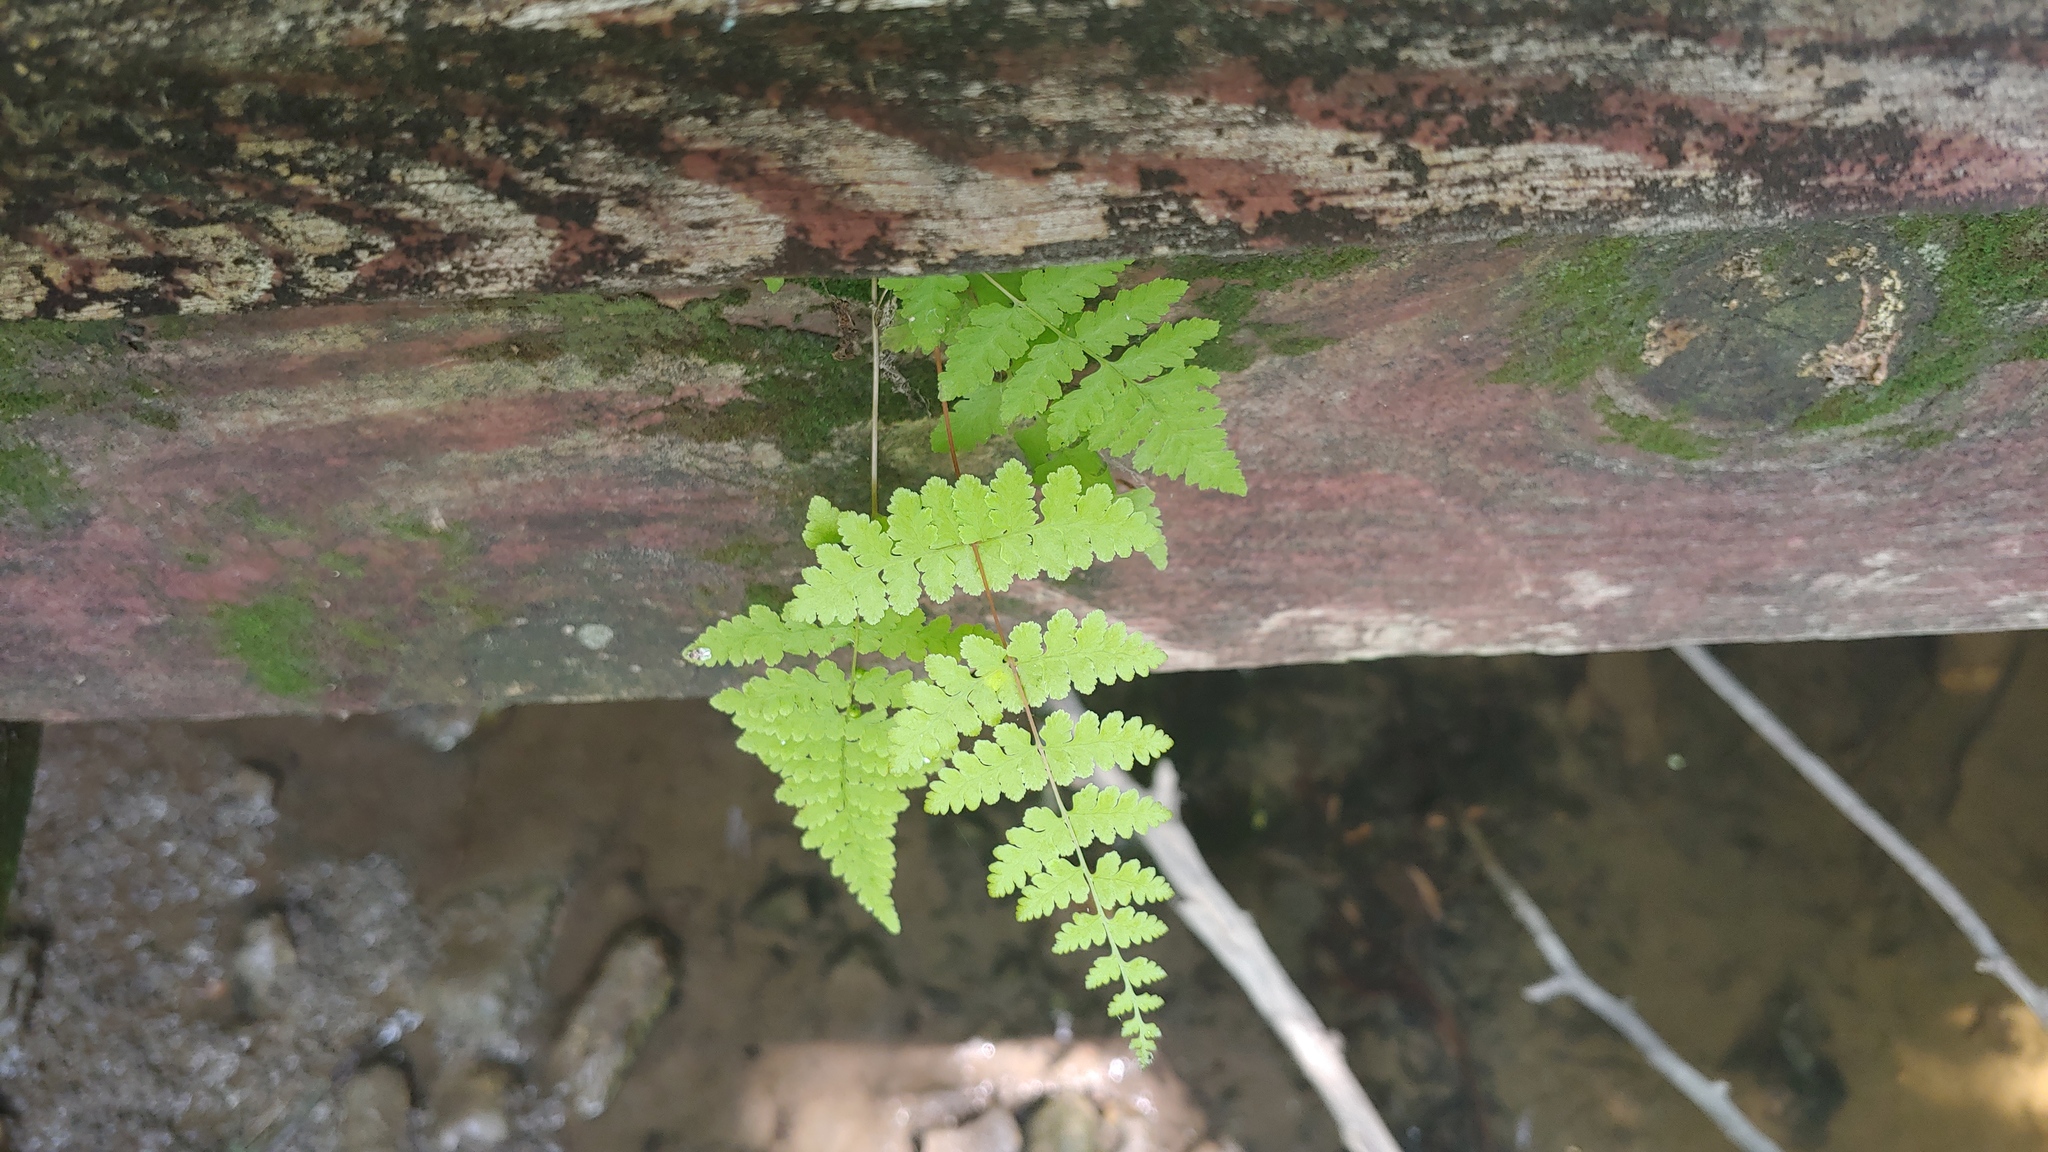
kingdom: Plantae
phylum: Tracheophyta
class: Polypodiopsida
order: Polypodiales
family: Cystopteridaceae
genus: Cystopteris
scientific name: Cystopteris bulbifera
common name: Bulblet bladder fern
